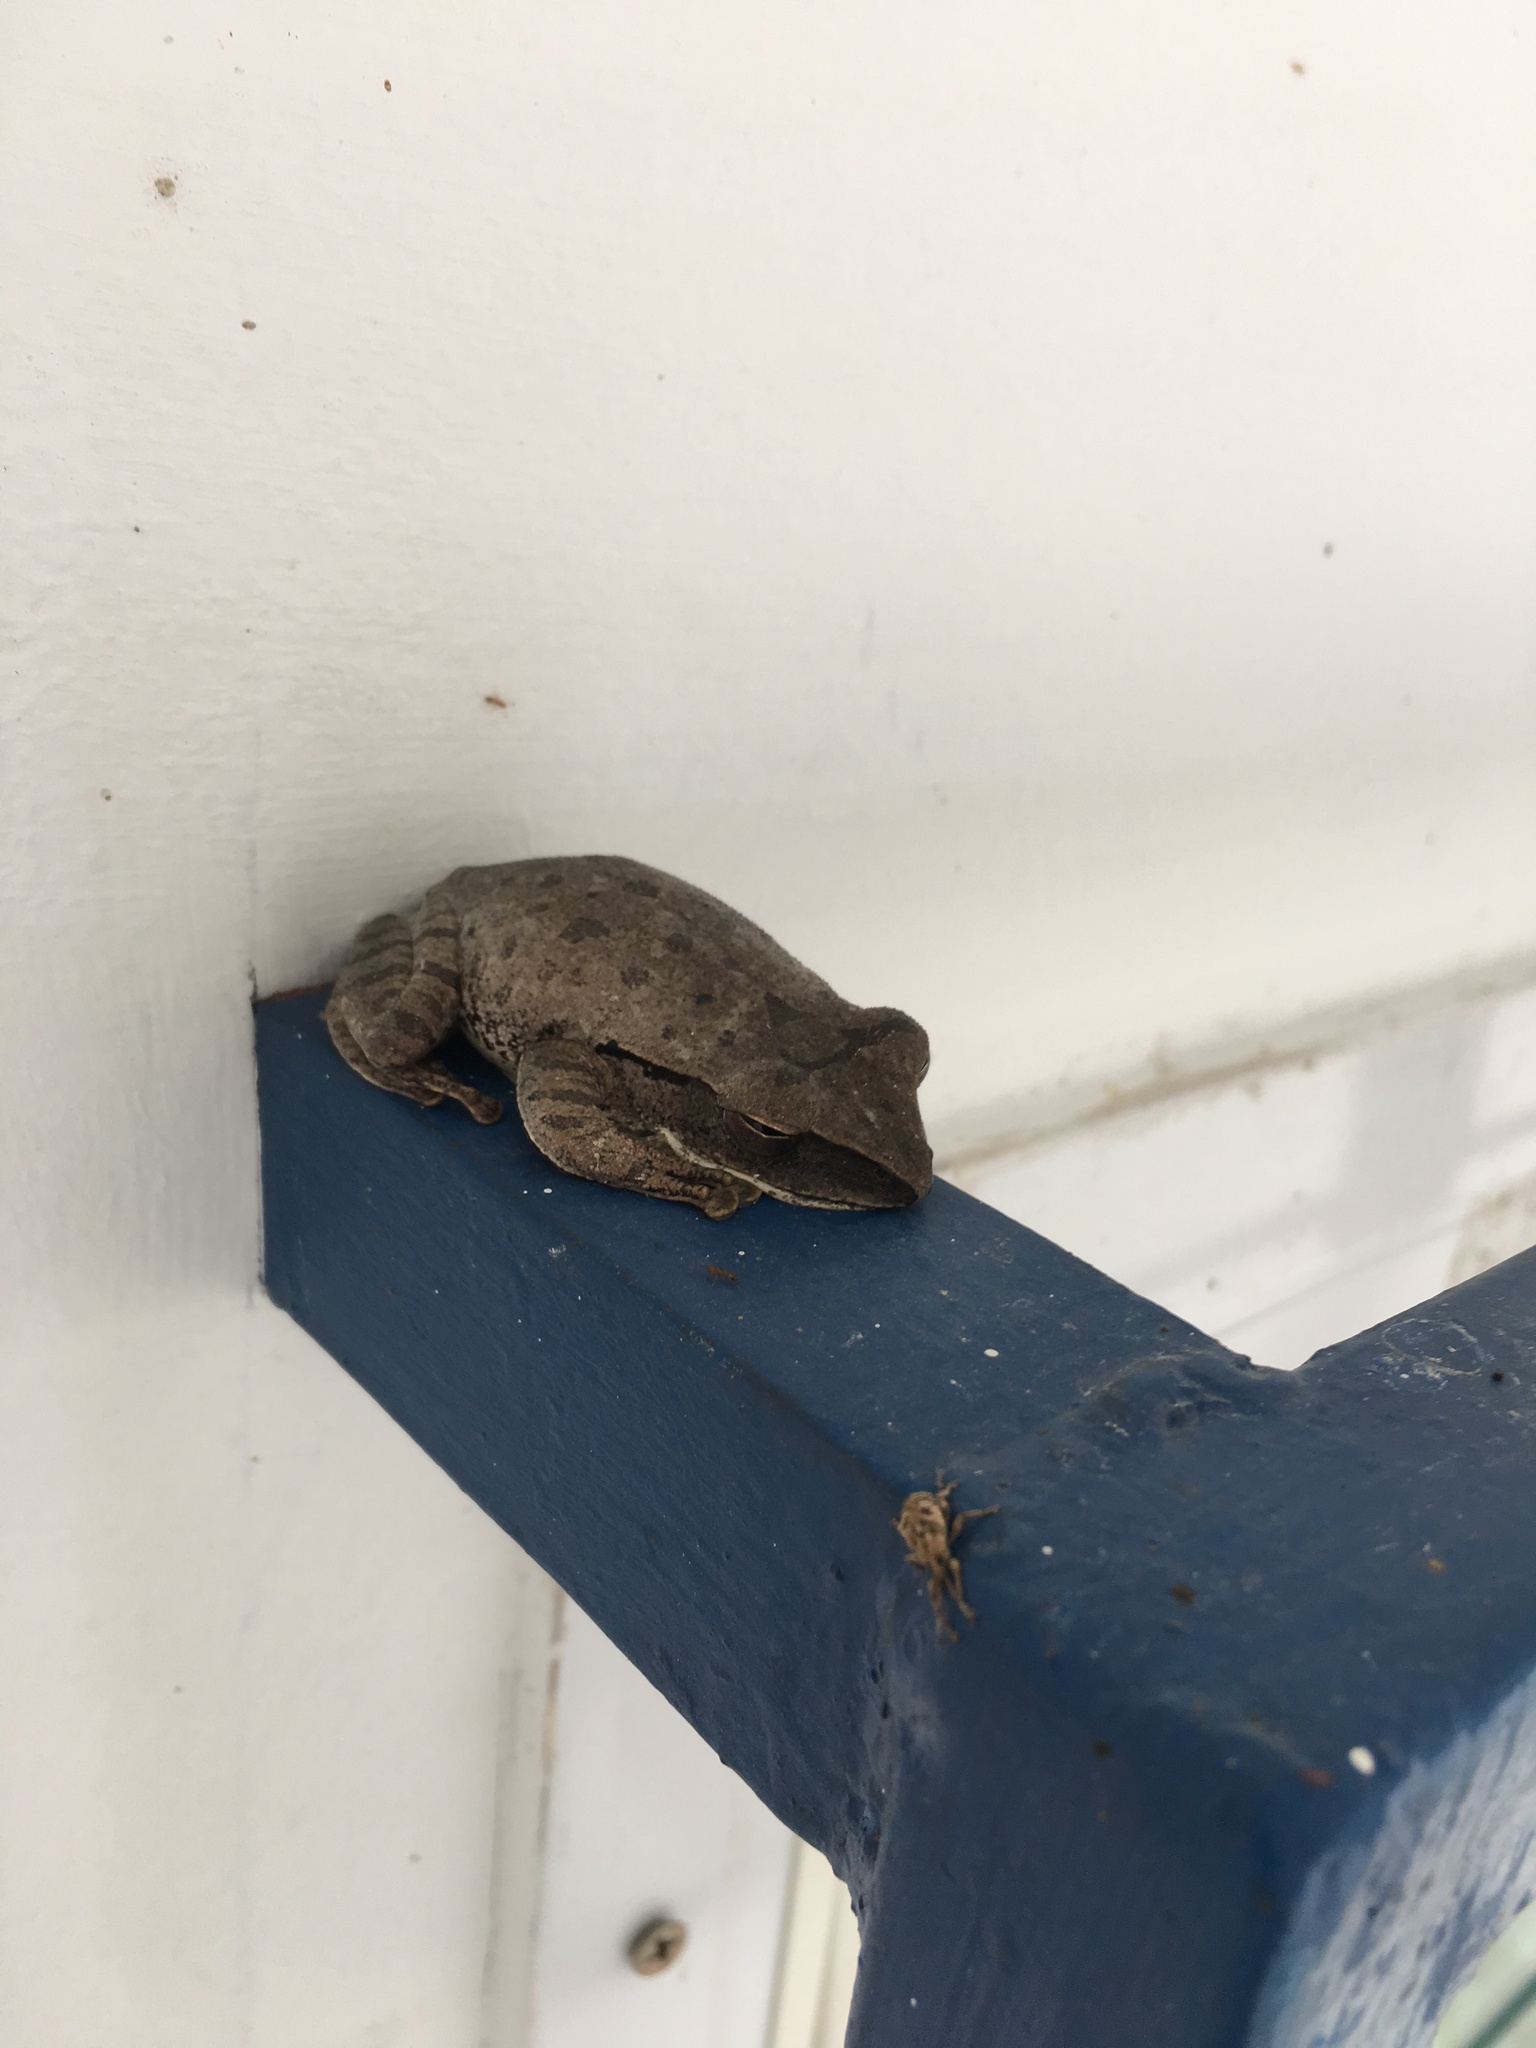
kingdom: Animalia
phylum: Chordata
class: Amphibia
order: Anura
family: Rhacophoridae
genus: Polypedates
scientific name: Polypedates megacephalus
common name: Hong kong whipping frog
